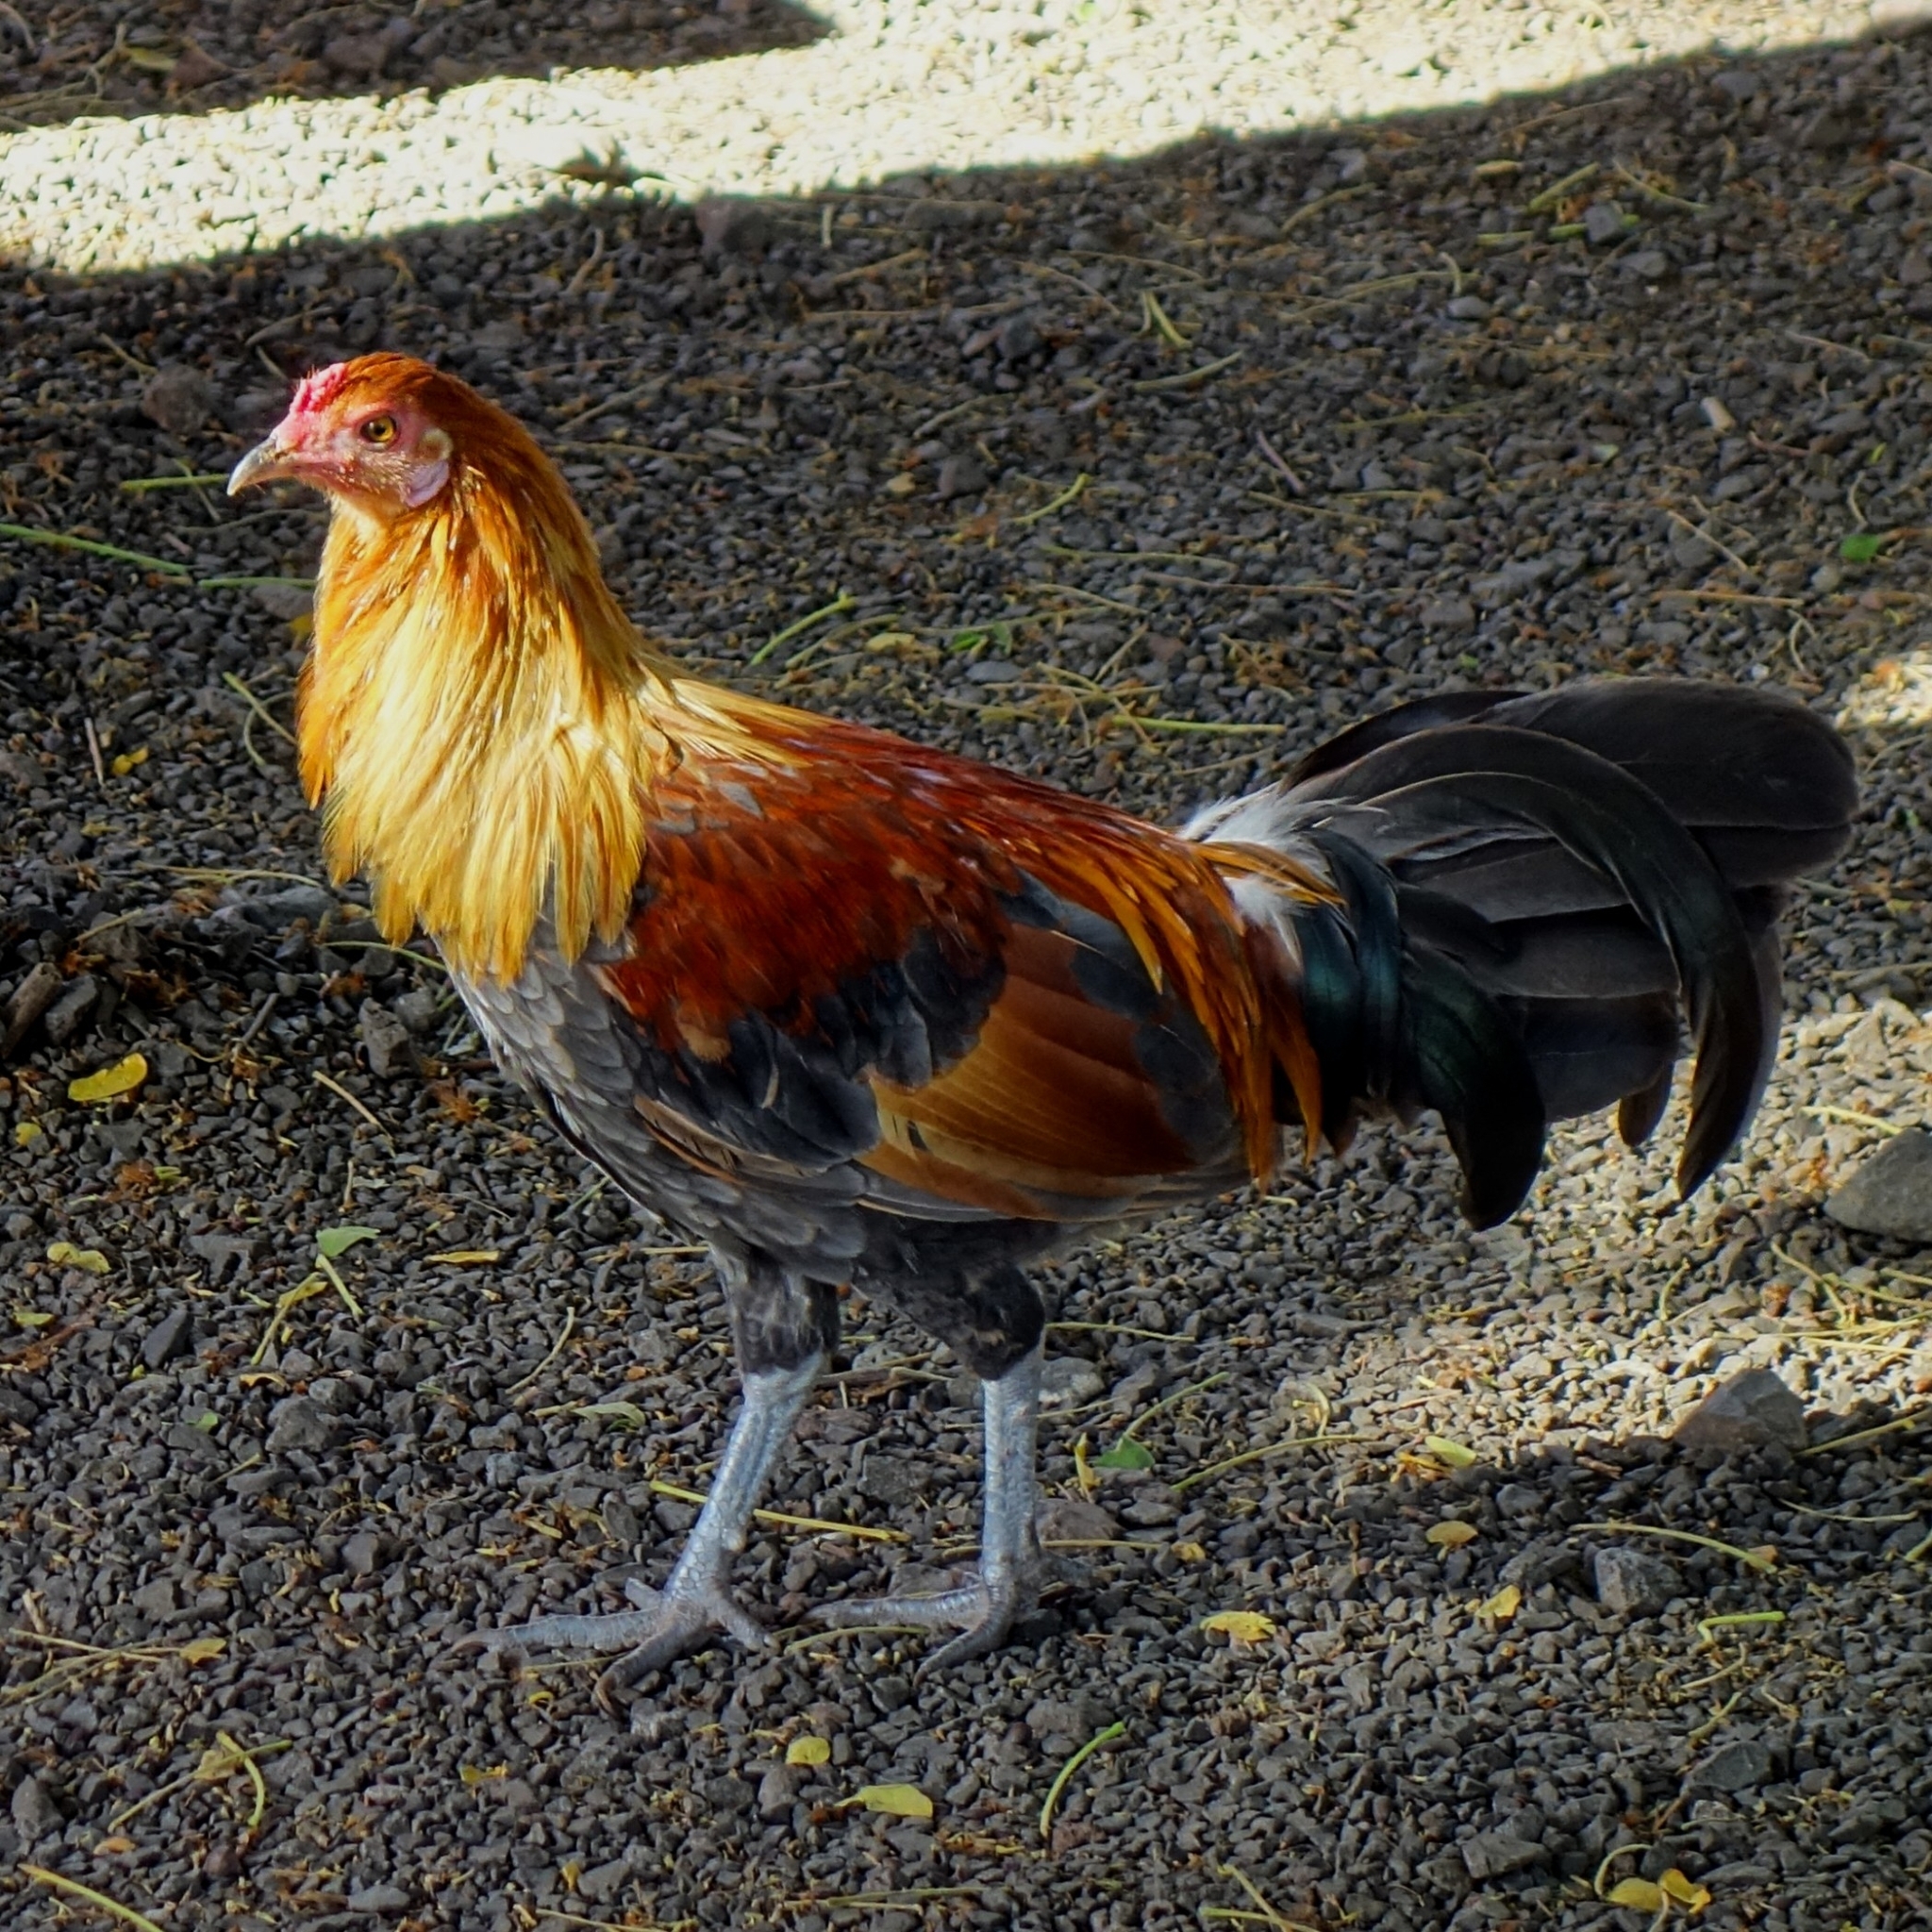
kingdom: Animalia
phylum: Chordata
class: Aves
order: Galliformes
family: Phasianidae
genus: Gallus
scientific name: Gallus gallus
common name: Red junglefowl
